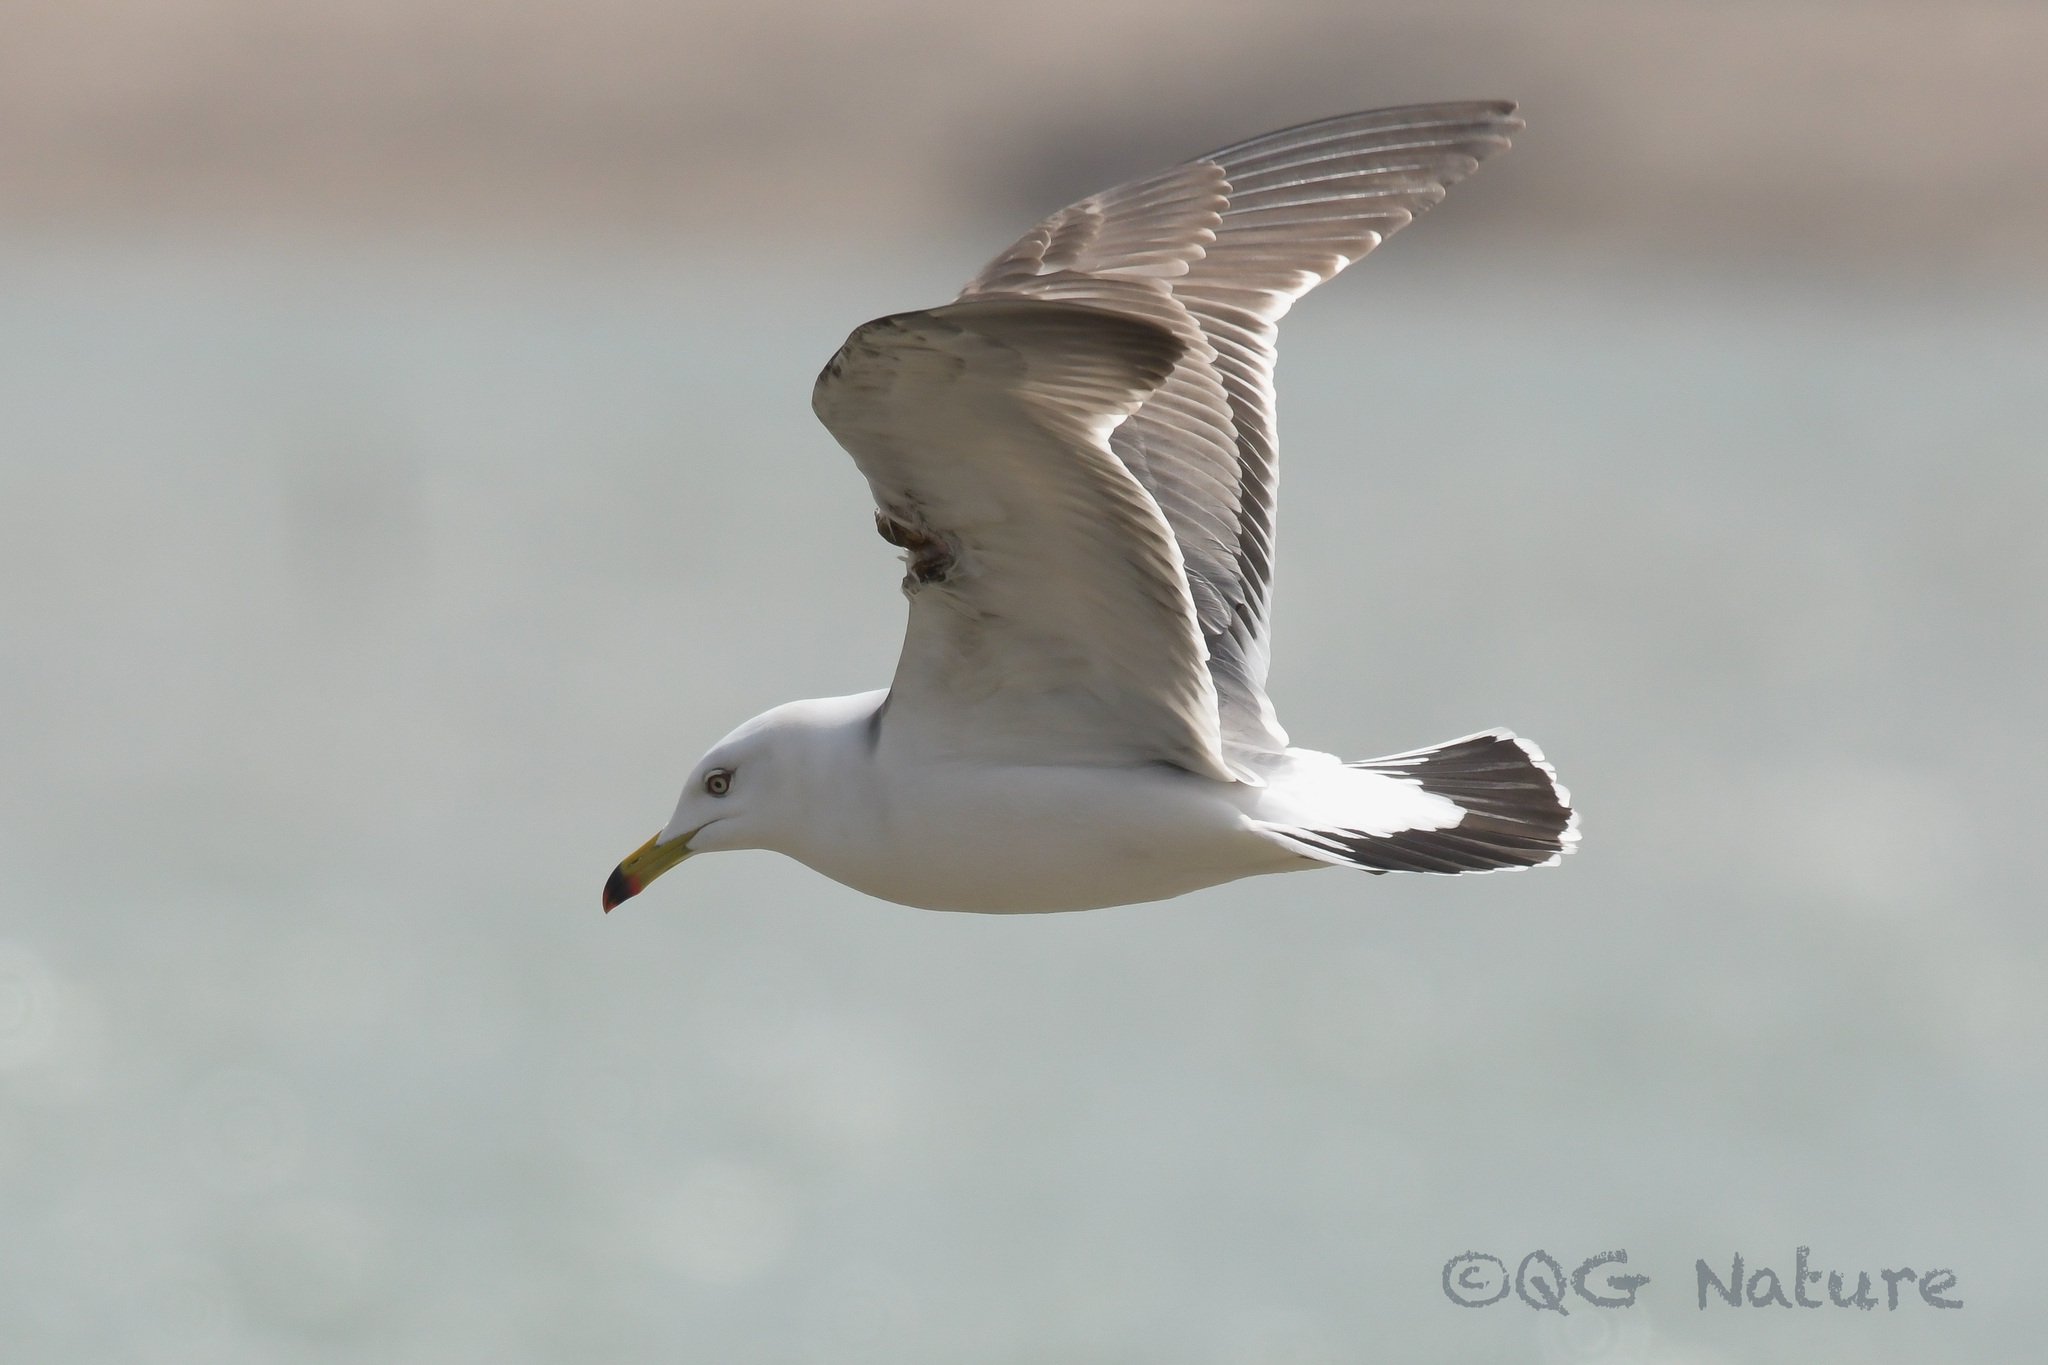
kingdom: Animalia
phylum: Chordata
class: Aves
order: Charadriiformes
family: Laridae
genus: Larus
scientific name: Larus crassirostris
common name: Black-tailed gull
